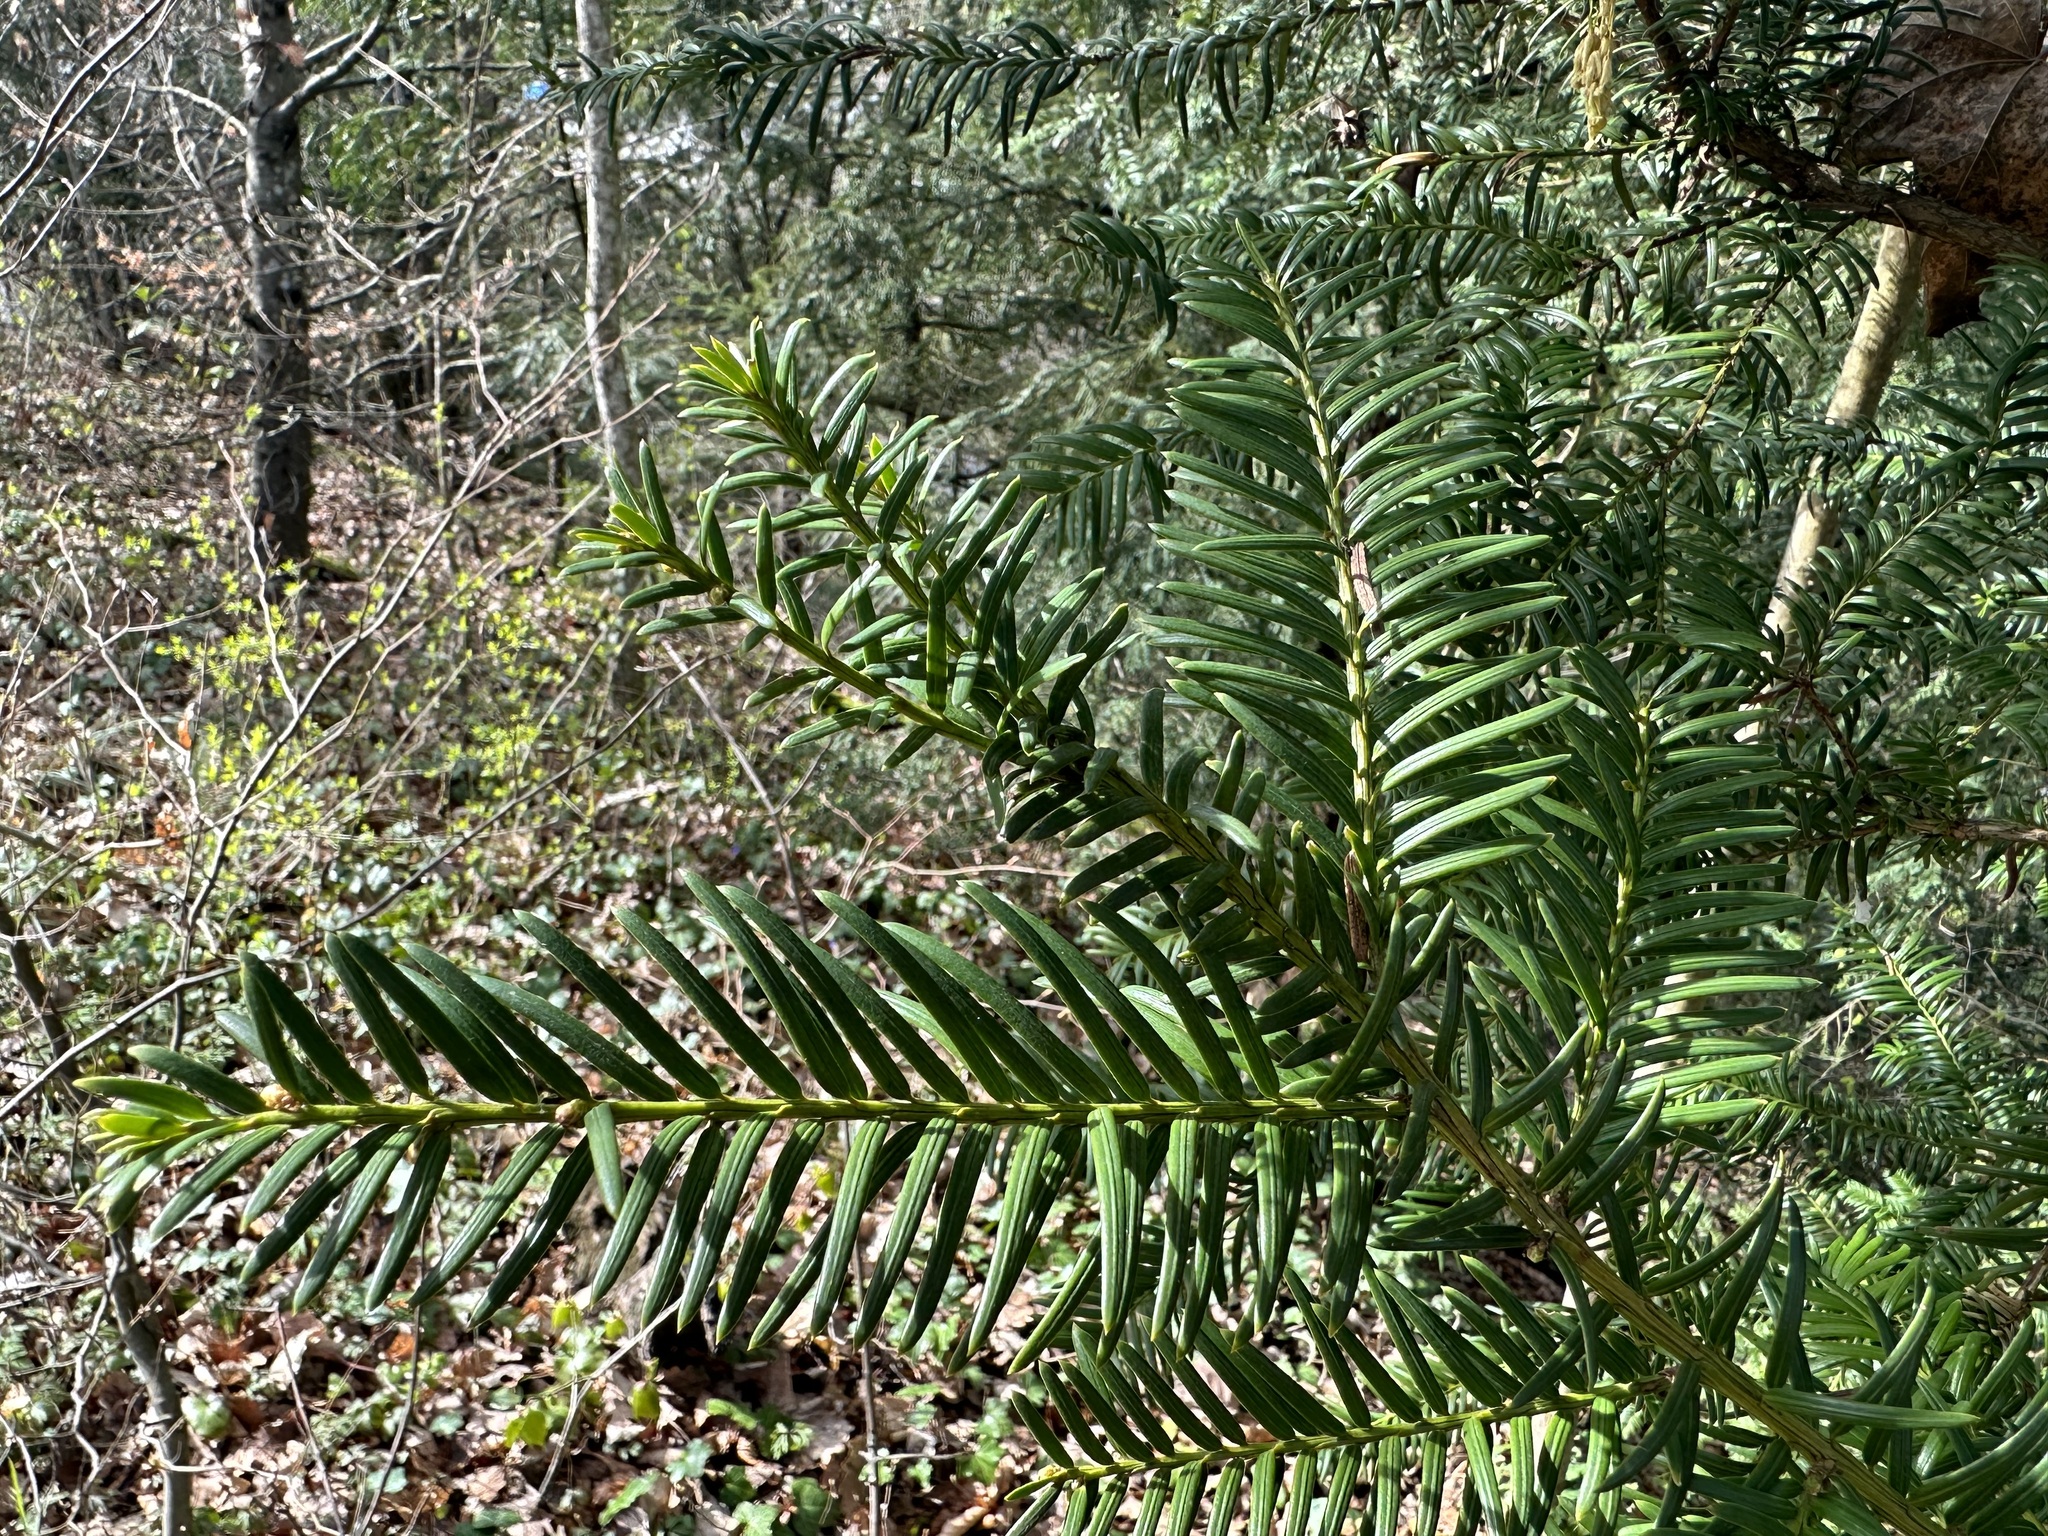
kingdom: Plantae
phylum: Tracheophyta
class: Pinopsida
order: Pinales
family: Taxaceae
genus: Taxus
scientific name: Taxus baccata
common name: Yew
